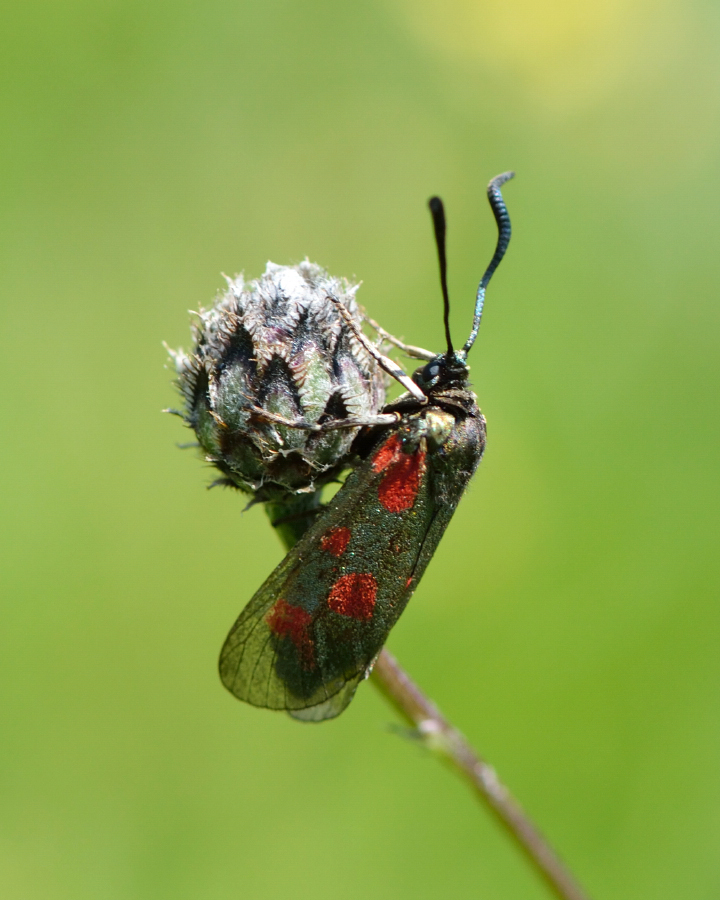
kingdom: Animalia
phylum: Arthropoda
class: Insecta
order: Lepidoptera
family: Zygaenidae
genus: Zygaena
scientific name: Zygaena centaureae
